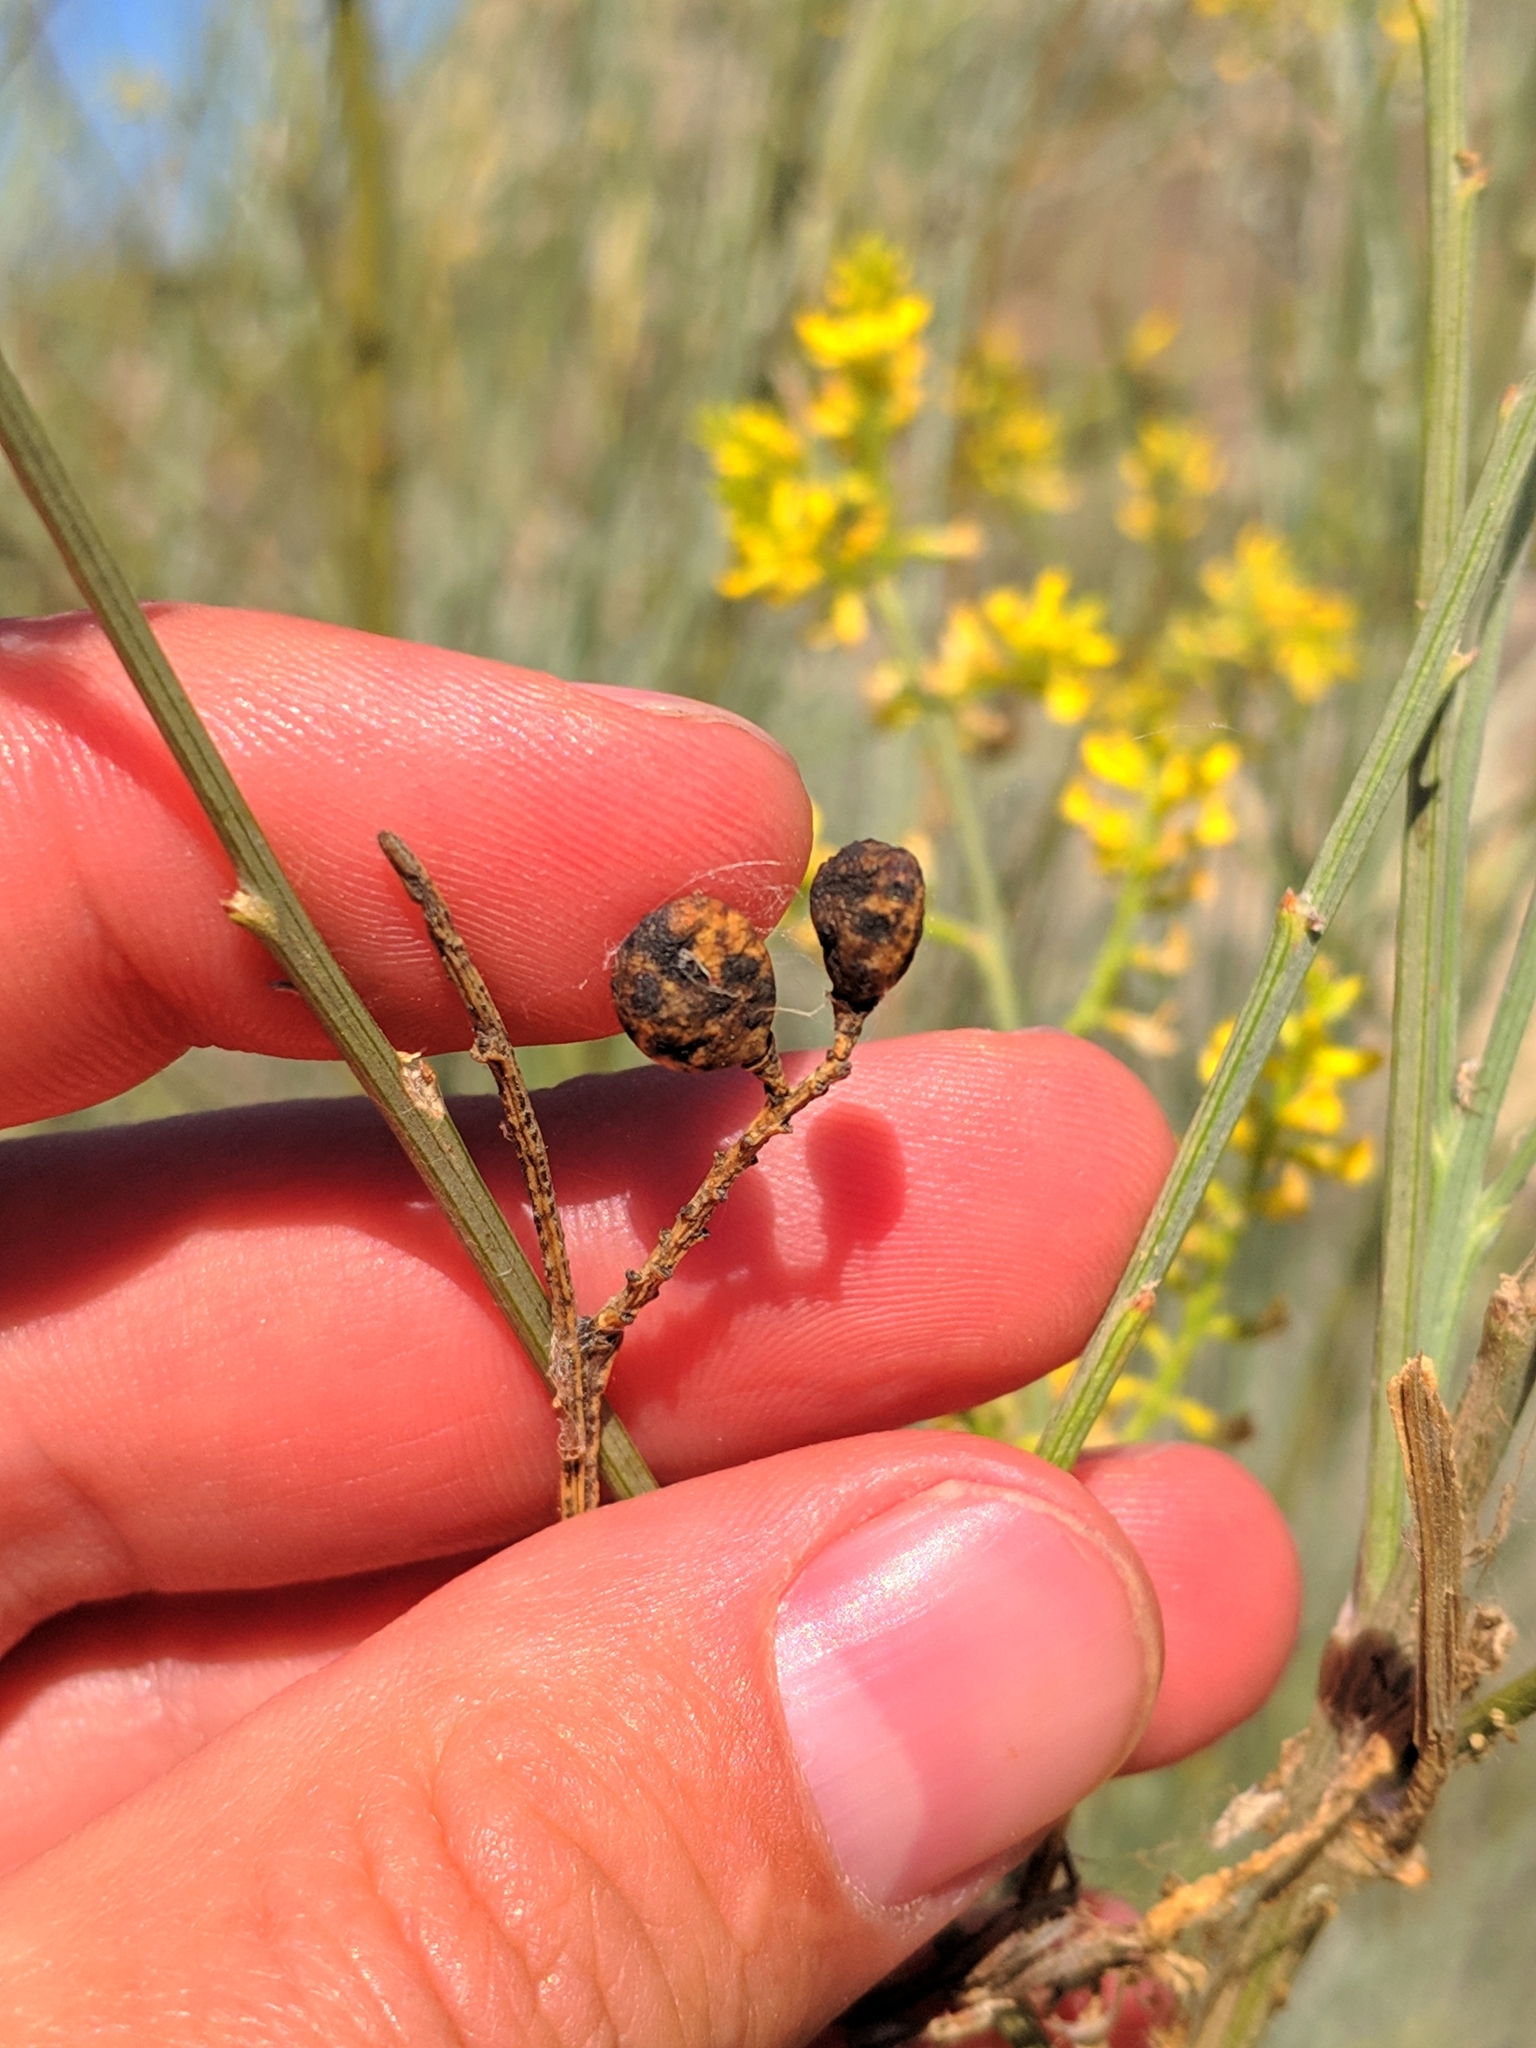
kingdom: Plantae
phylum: Tracheophyta
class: Magnoliopsida
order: Fabales
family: Fabaceae
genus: Retama
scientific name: Retama sphaerocarpa
